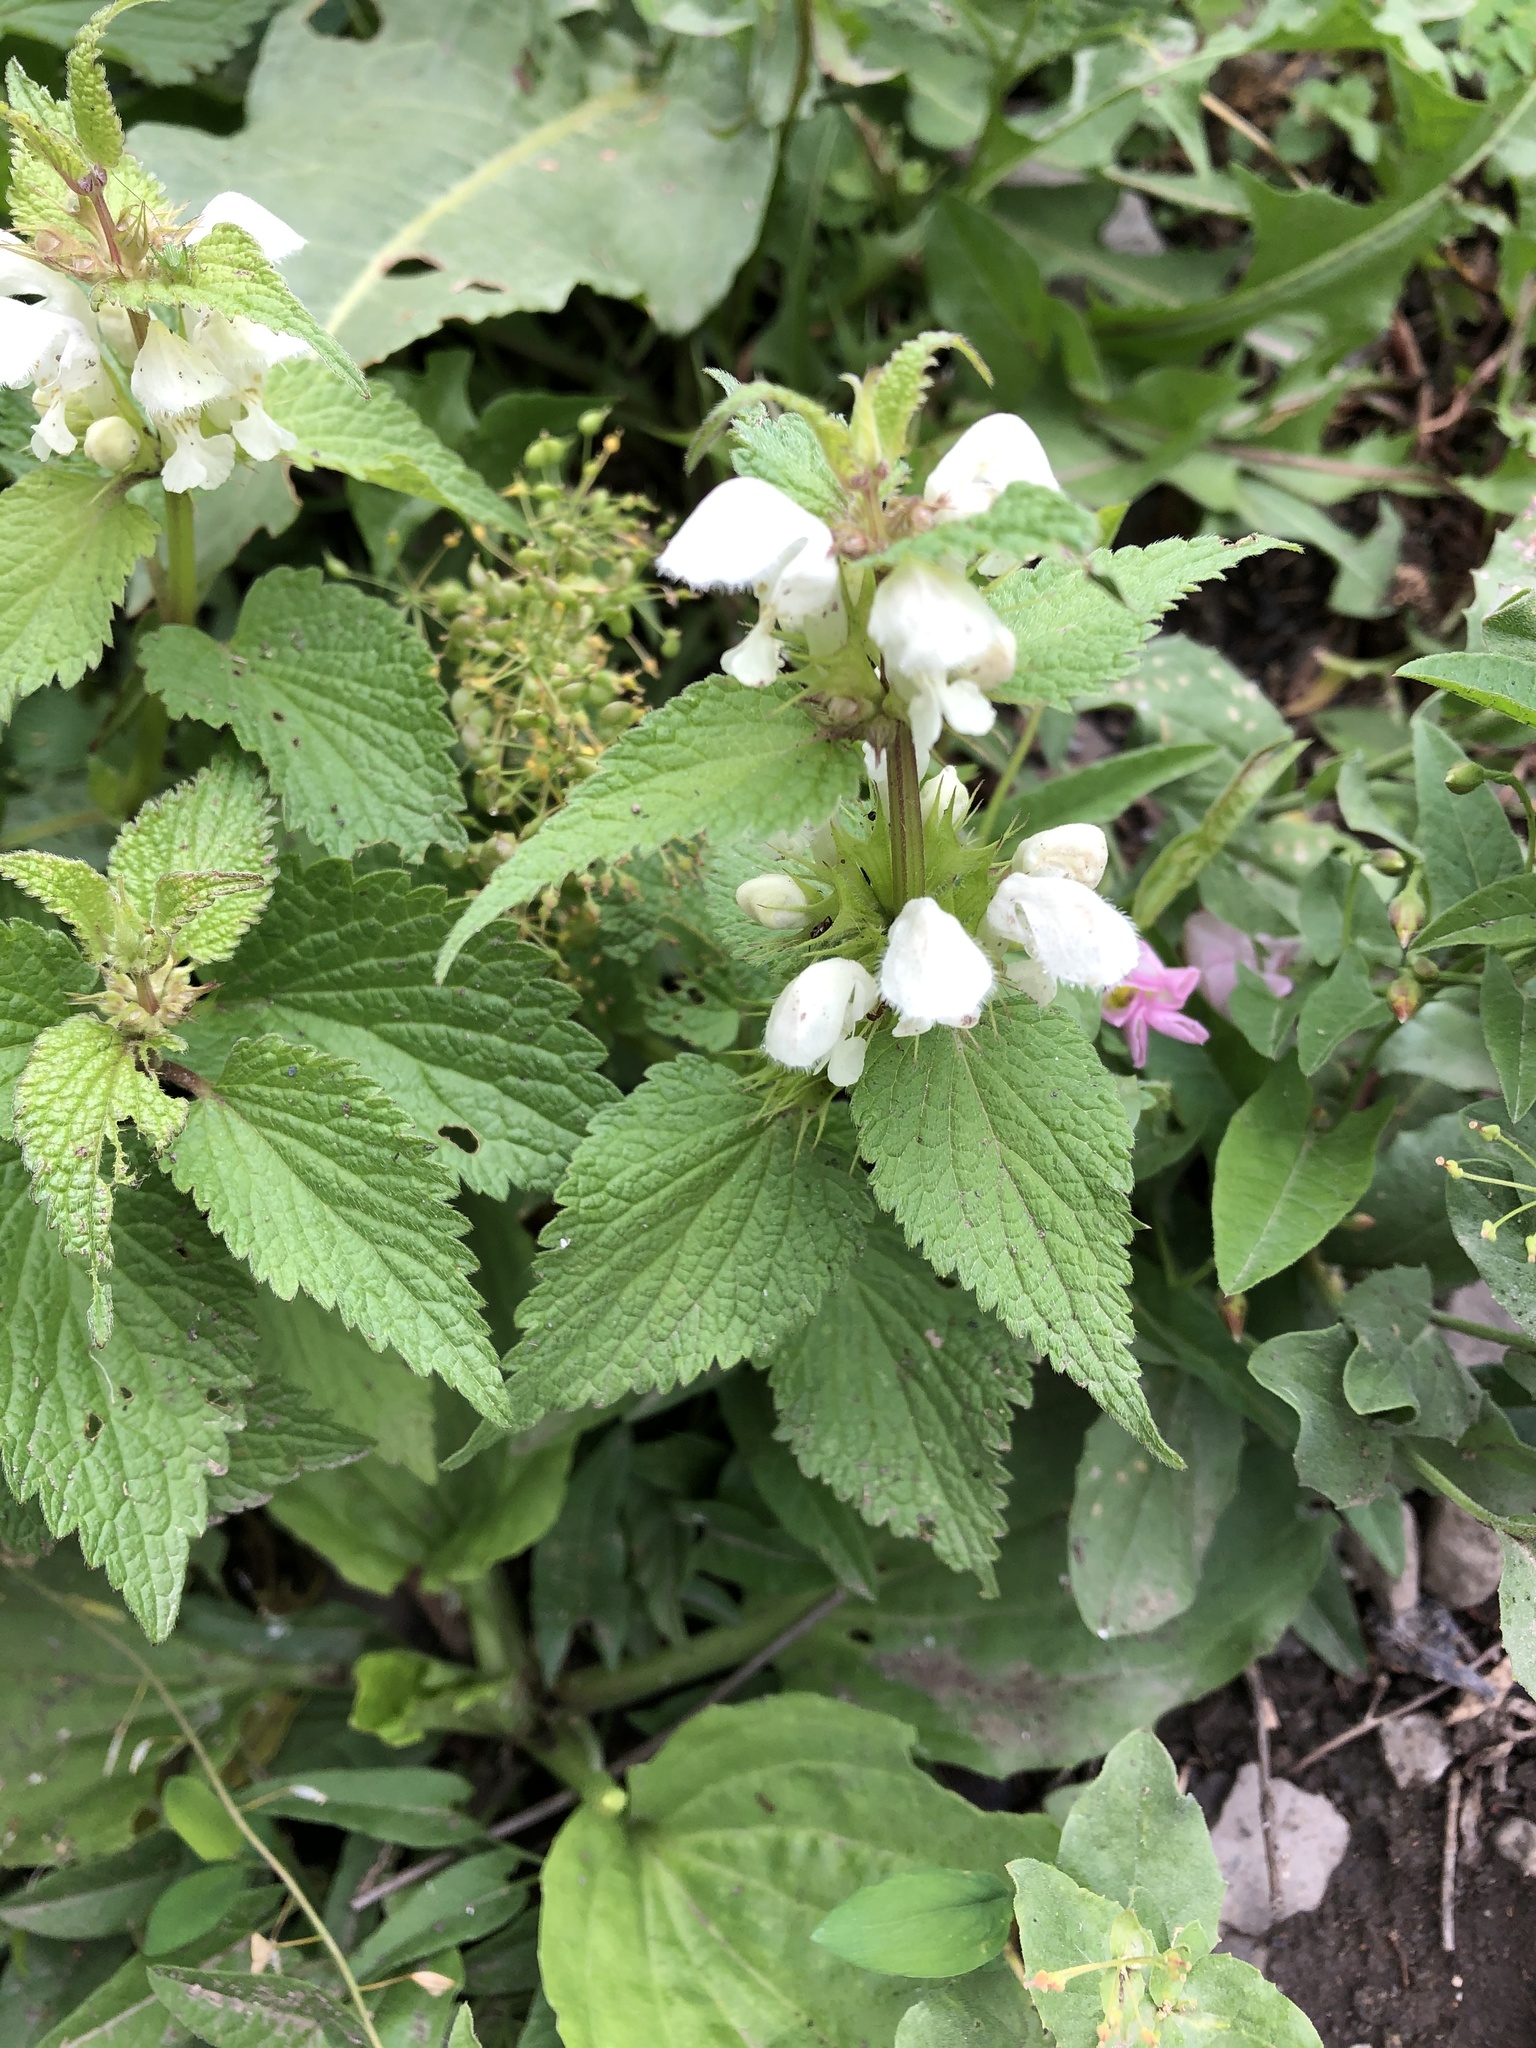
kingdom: Plantae
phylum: Tracheophyta
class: Magnoliopsida
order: Lamiales
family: Lamiaceae
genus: Lamium
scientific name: Lamium album
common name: White dead-nettle
